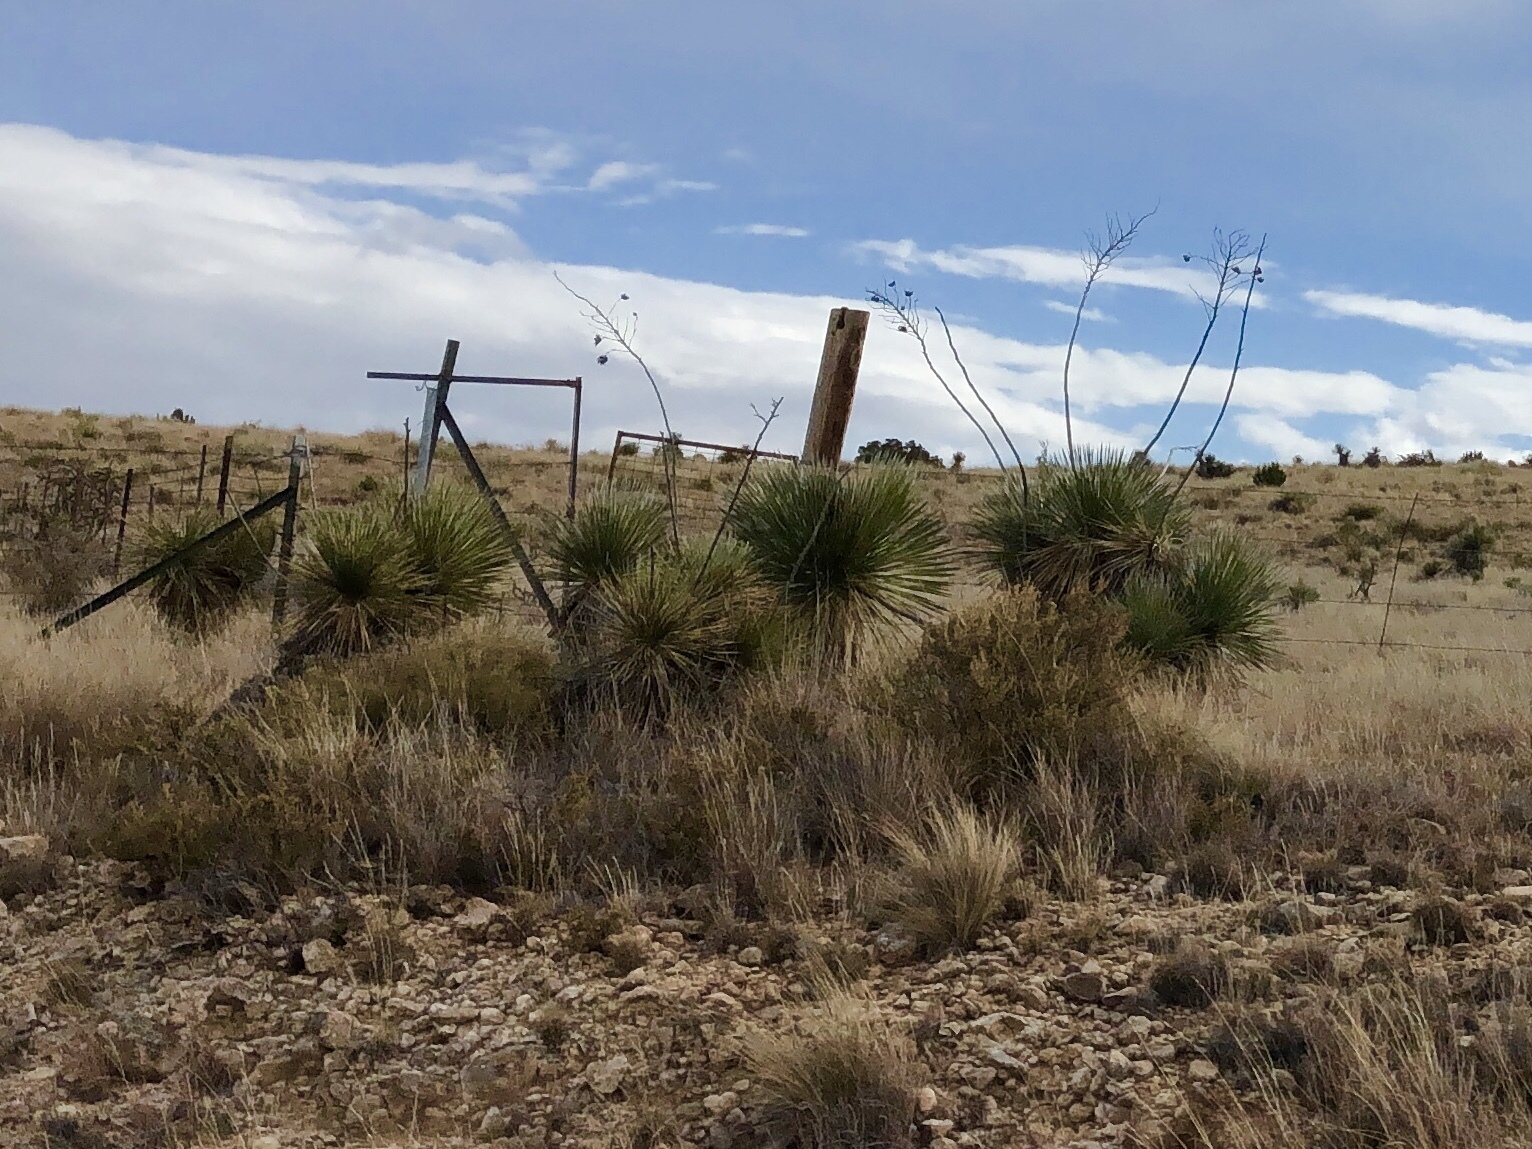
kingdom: Plantae
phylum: Tracheophyta
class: Liliopsida
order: Asparagales
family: Asparagaceae
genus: Yucca
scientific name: Yucca elata
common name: Palmella
